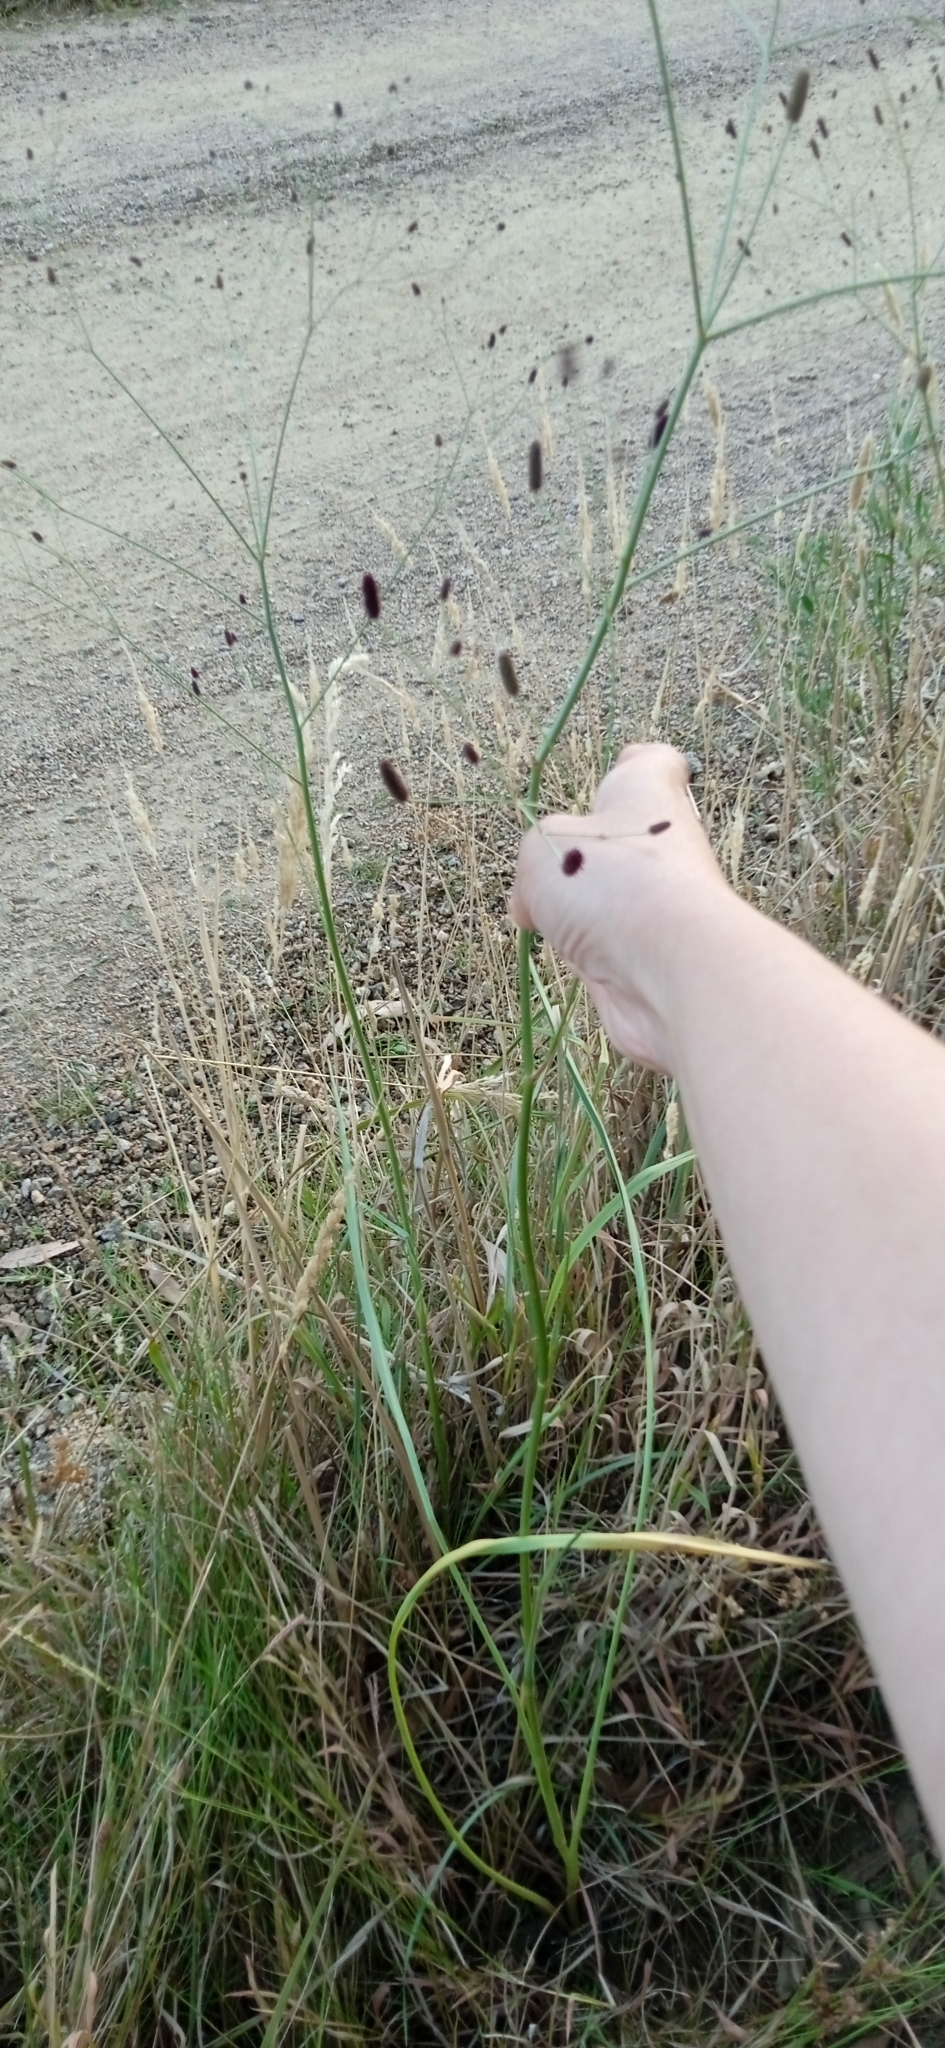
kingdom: Plantae
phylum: Tracheophyta
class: Magnoliopsida
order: Apiales
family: Apiaceae
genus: Eryngium
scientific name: Eryngium ebracteatum
